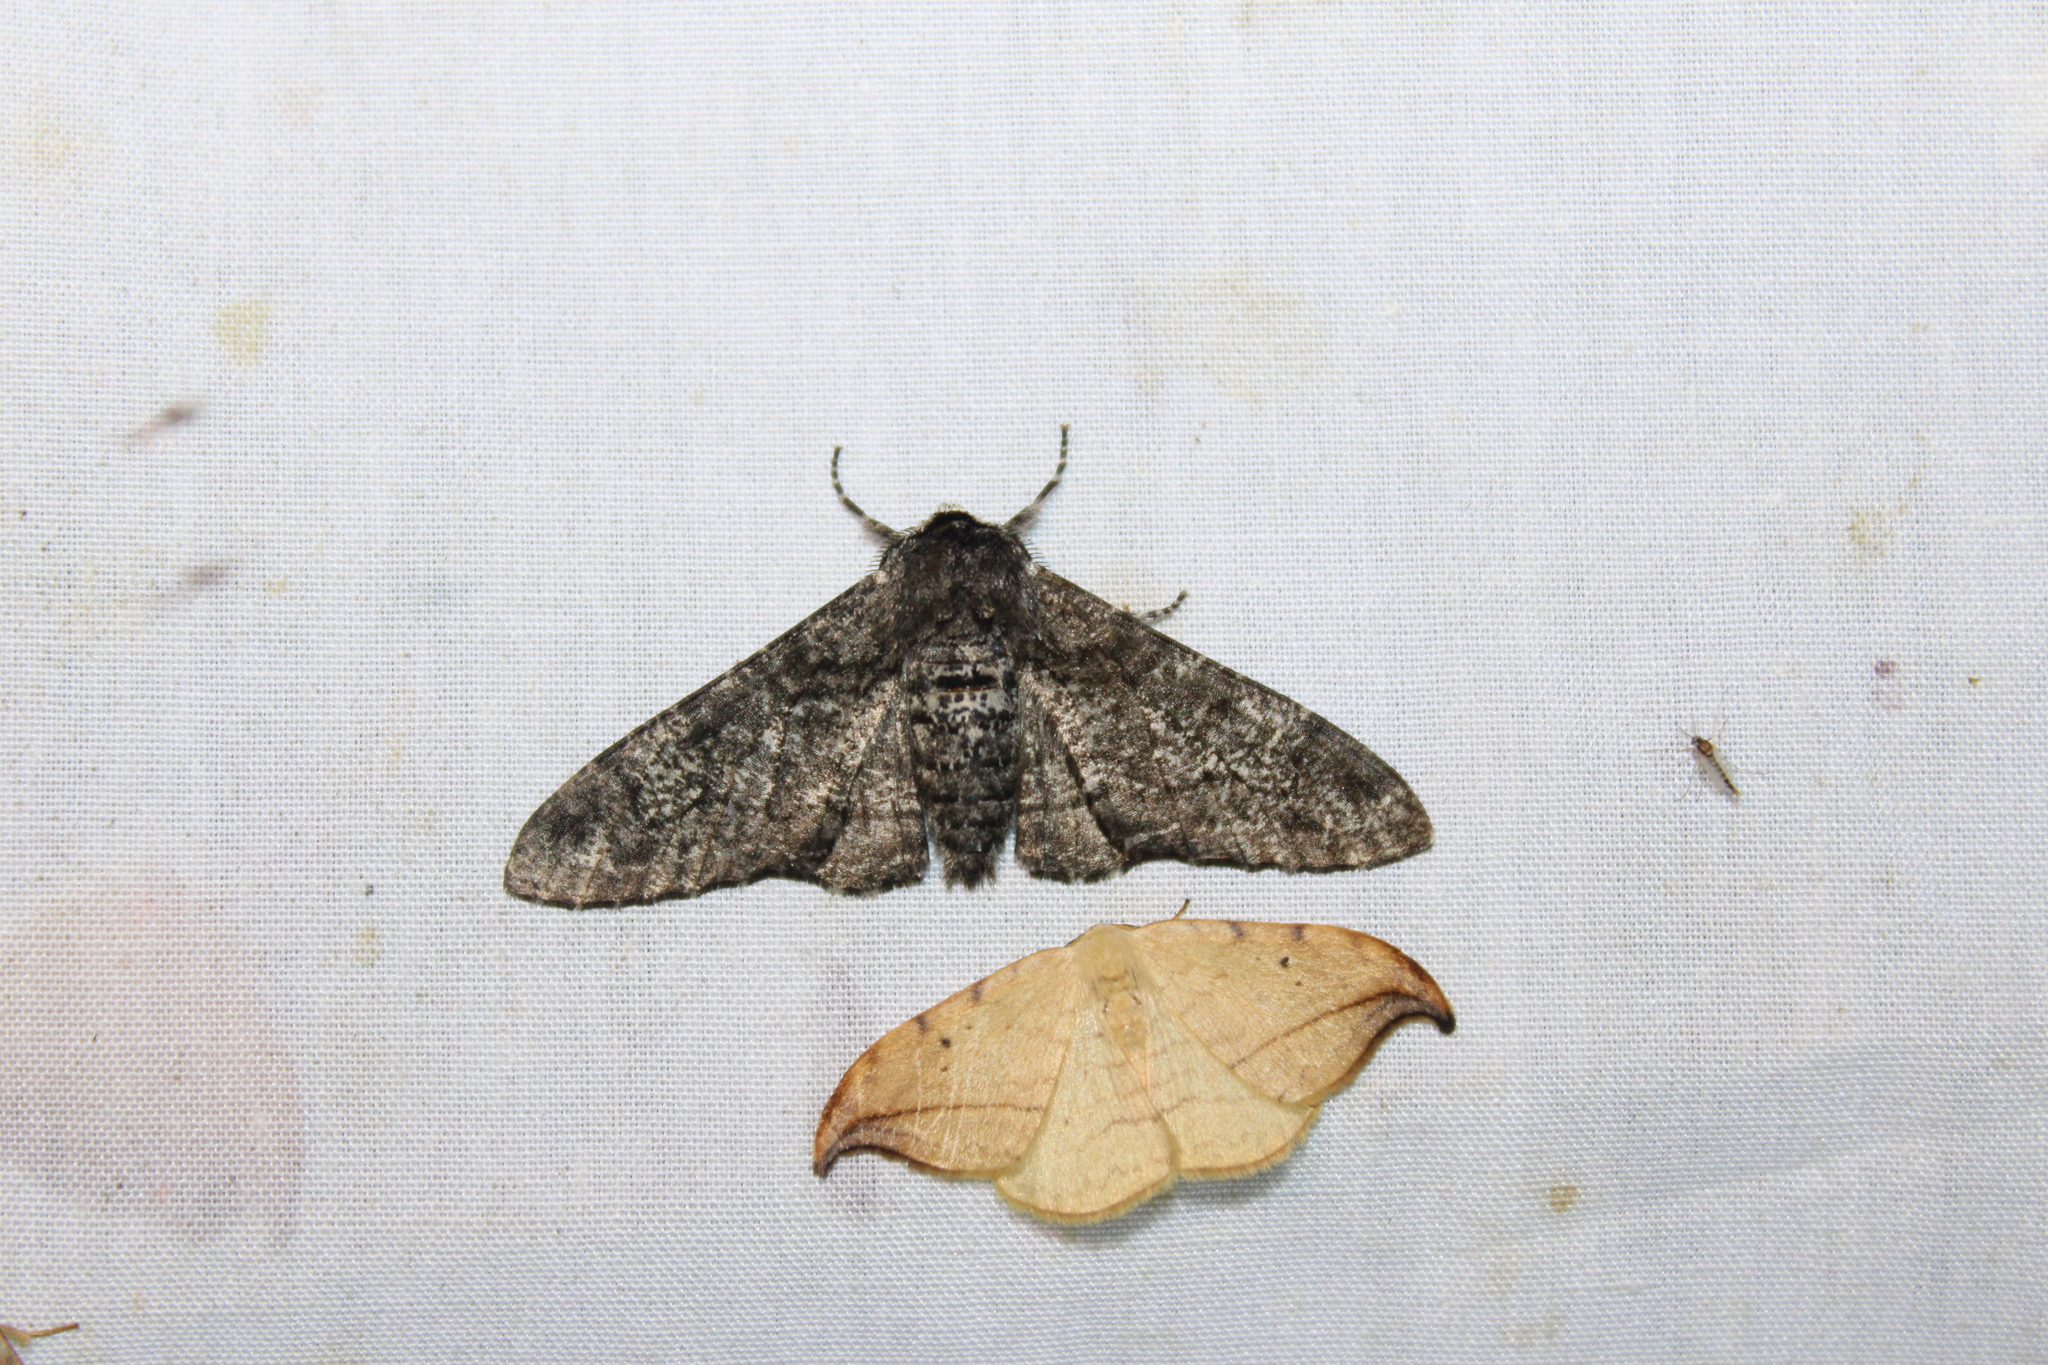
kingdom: Animalia
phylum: Arthropoda
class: Insecta
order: Lepidoptera
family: Geometridae
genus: Biston
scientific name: Biston betularia
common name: Peppered moth
